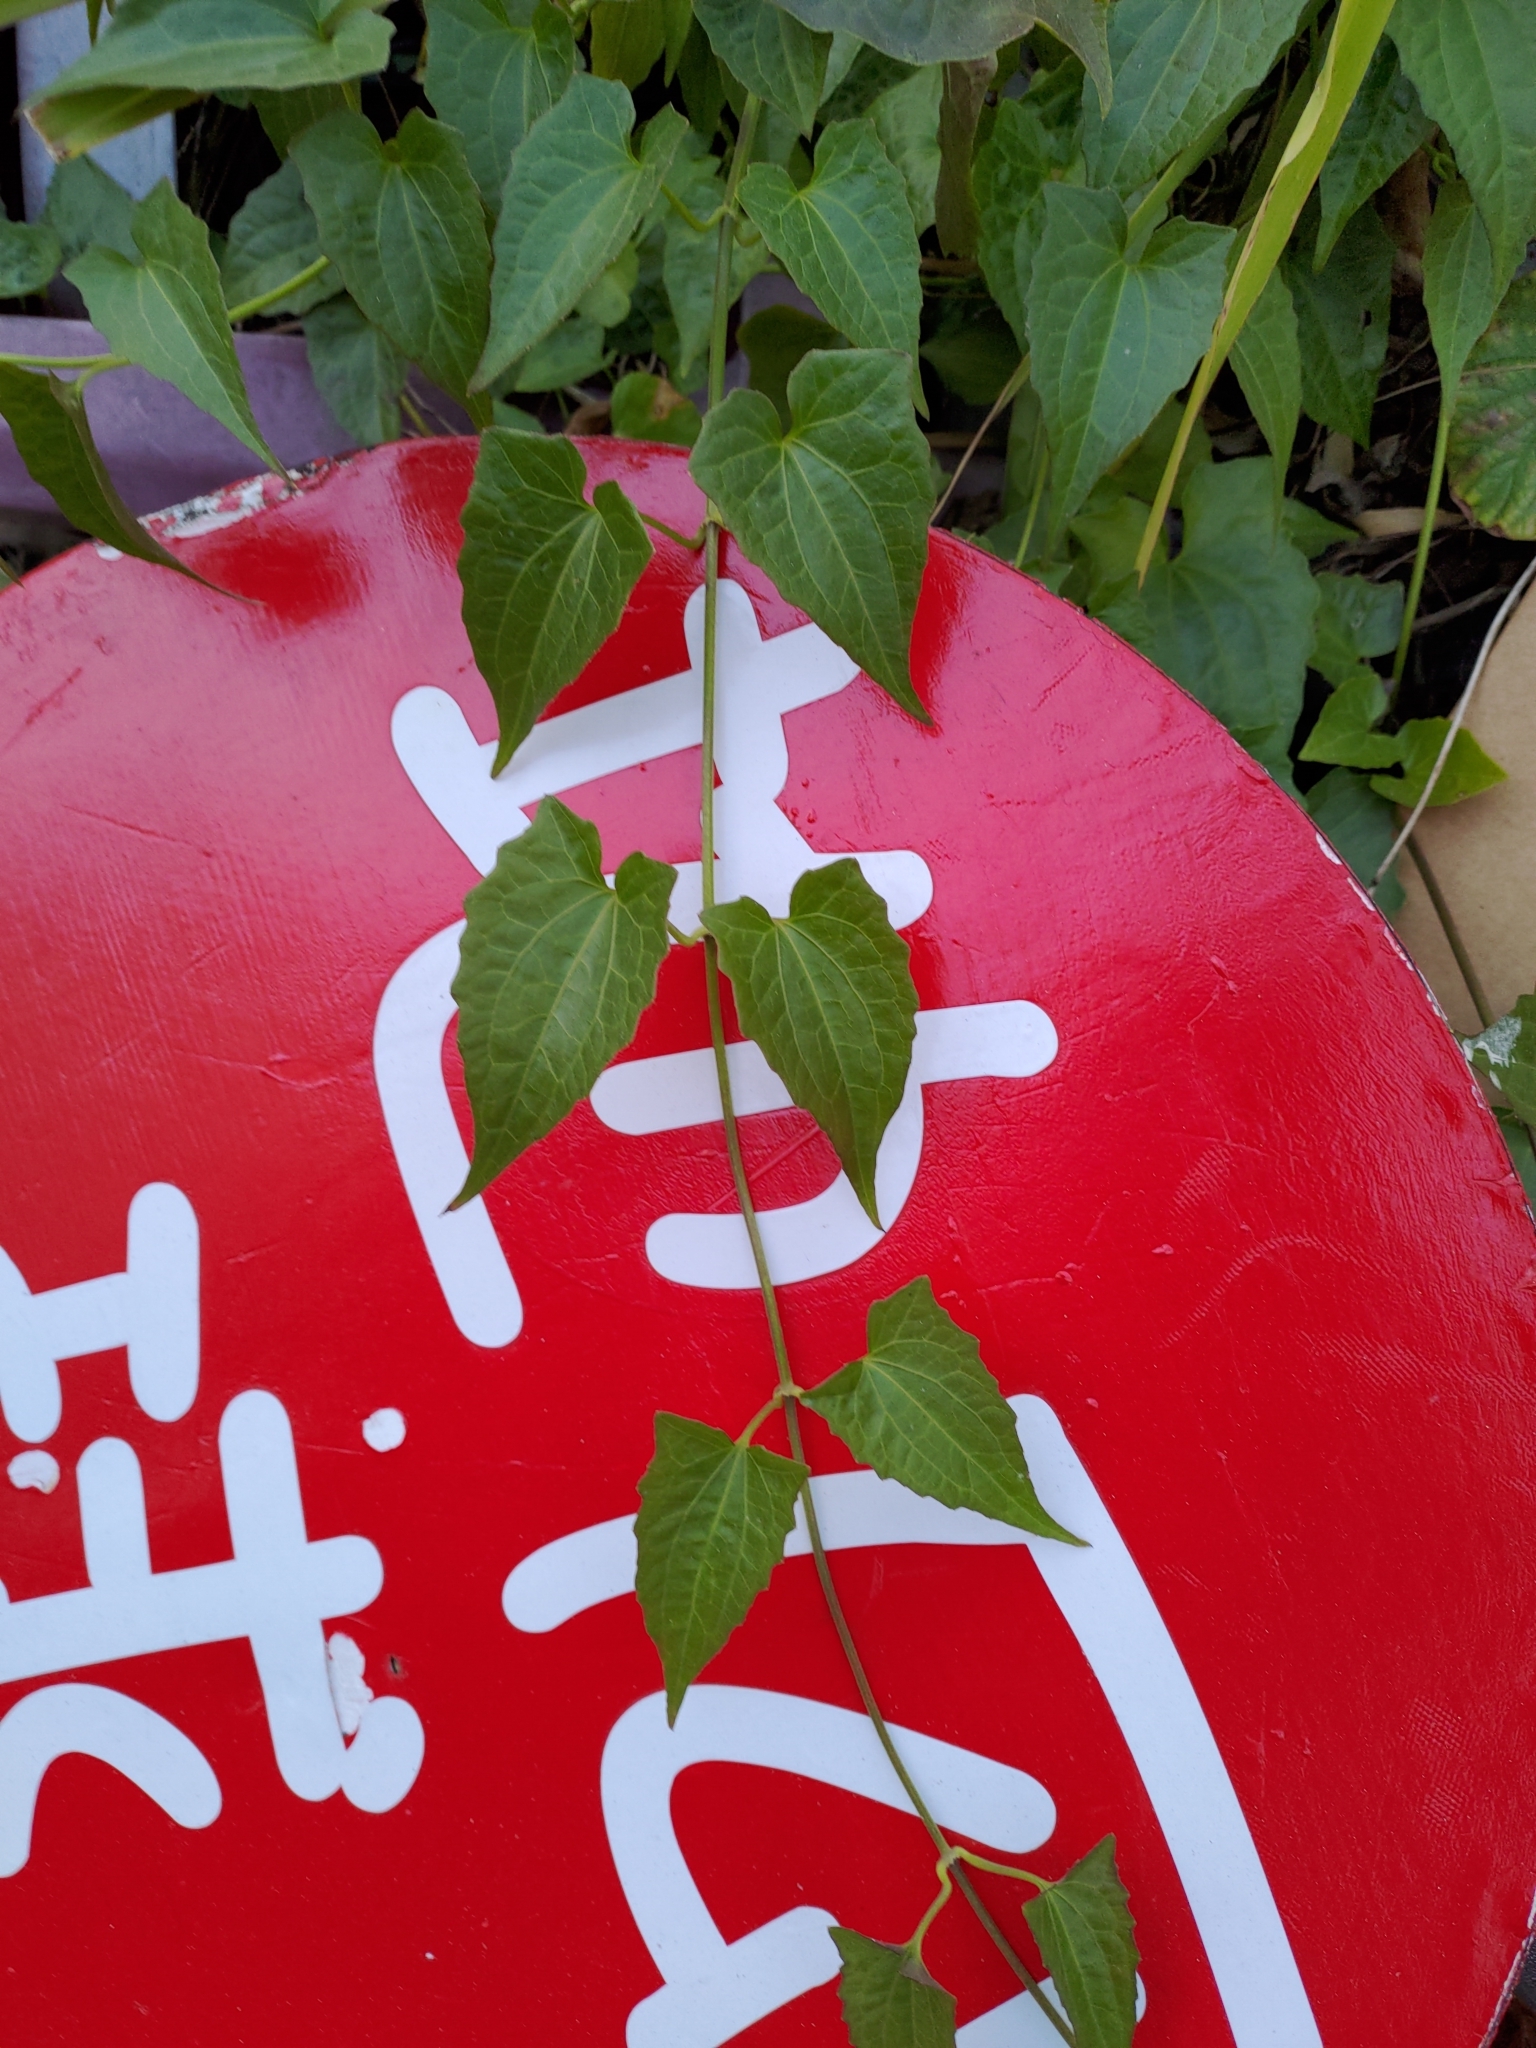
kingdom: Plantae
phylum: Tracheophyta
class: Magnoliopsida
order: Asterales
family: Asteraceae
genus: Mikania
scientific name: Mikania micrantha
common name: Mile-a-minute
